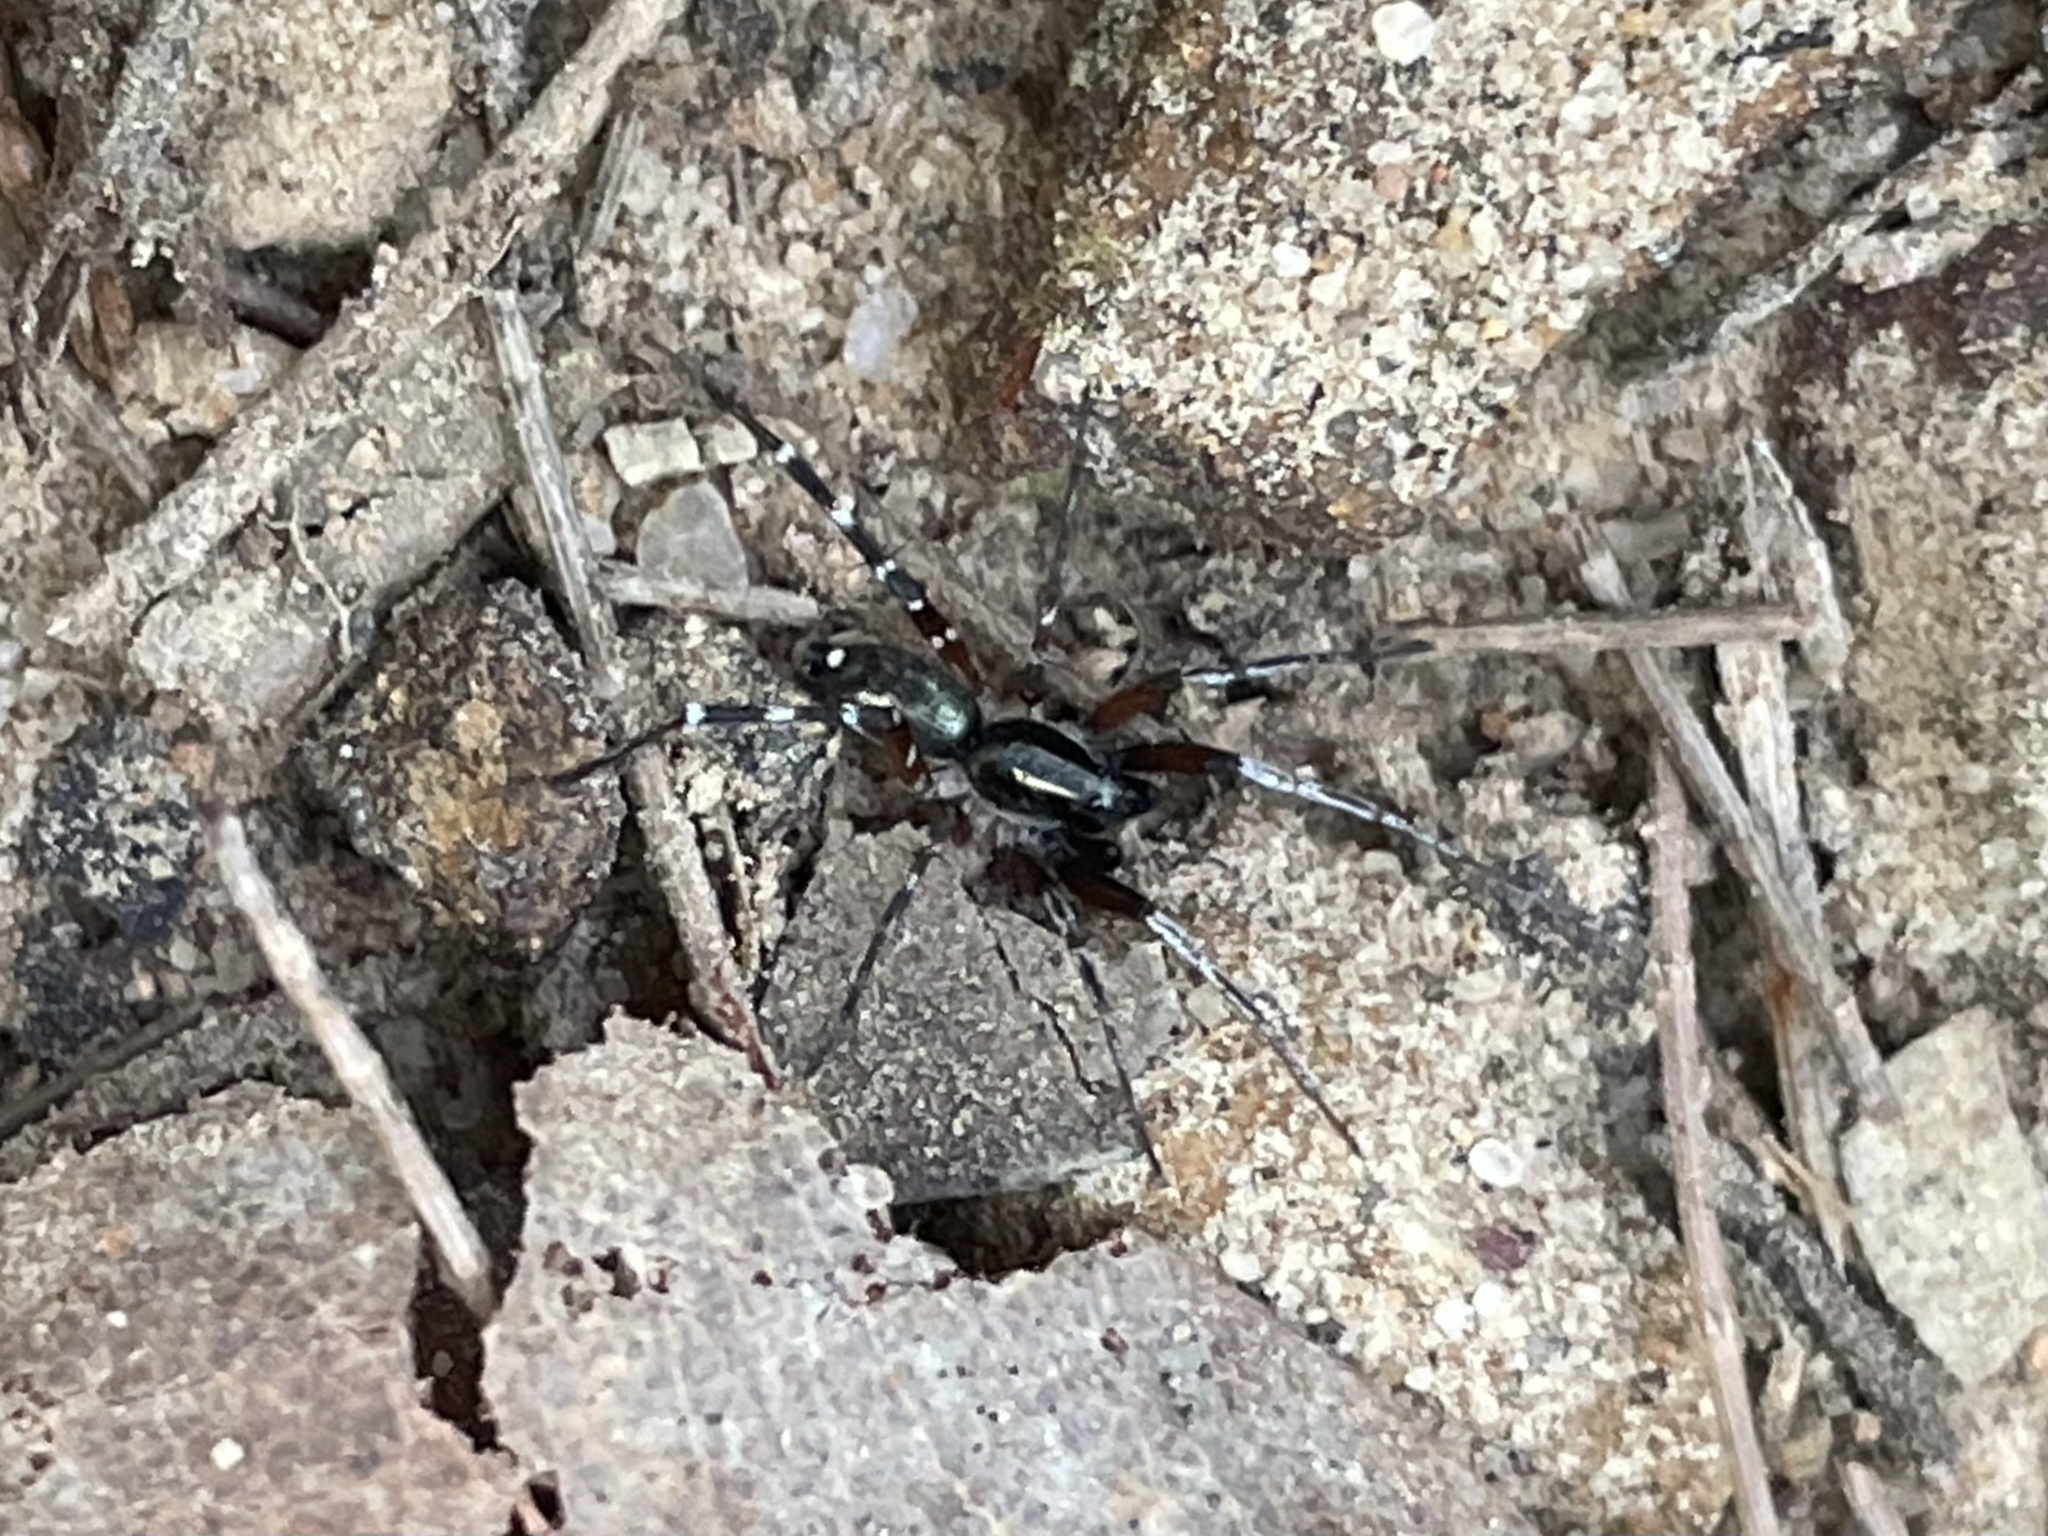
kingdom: Animalia
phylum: Arthropoda
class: Arachnida
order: Araneae
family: Lycosidae
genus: Venonia
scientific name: Venonia micarioides
